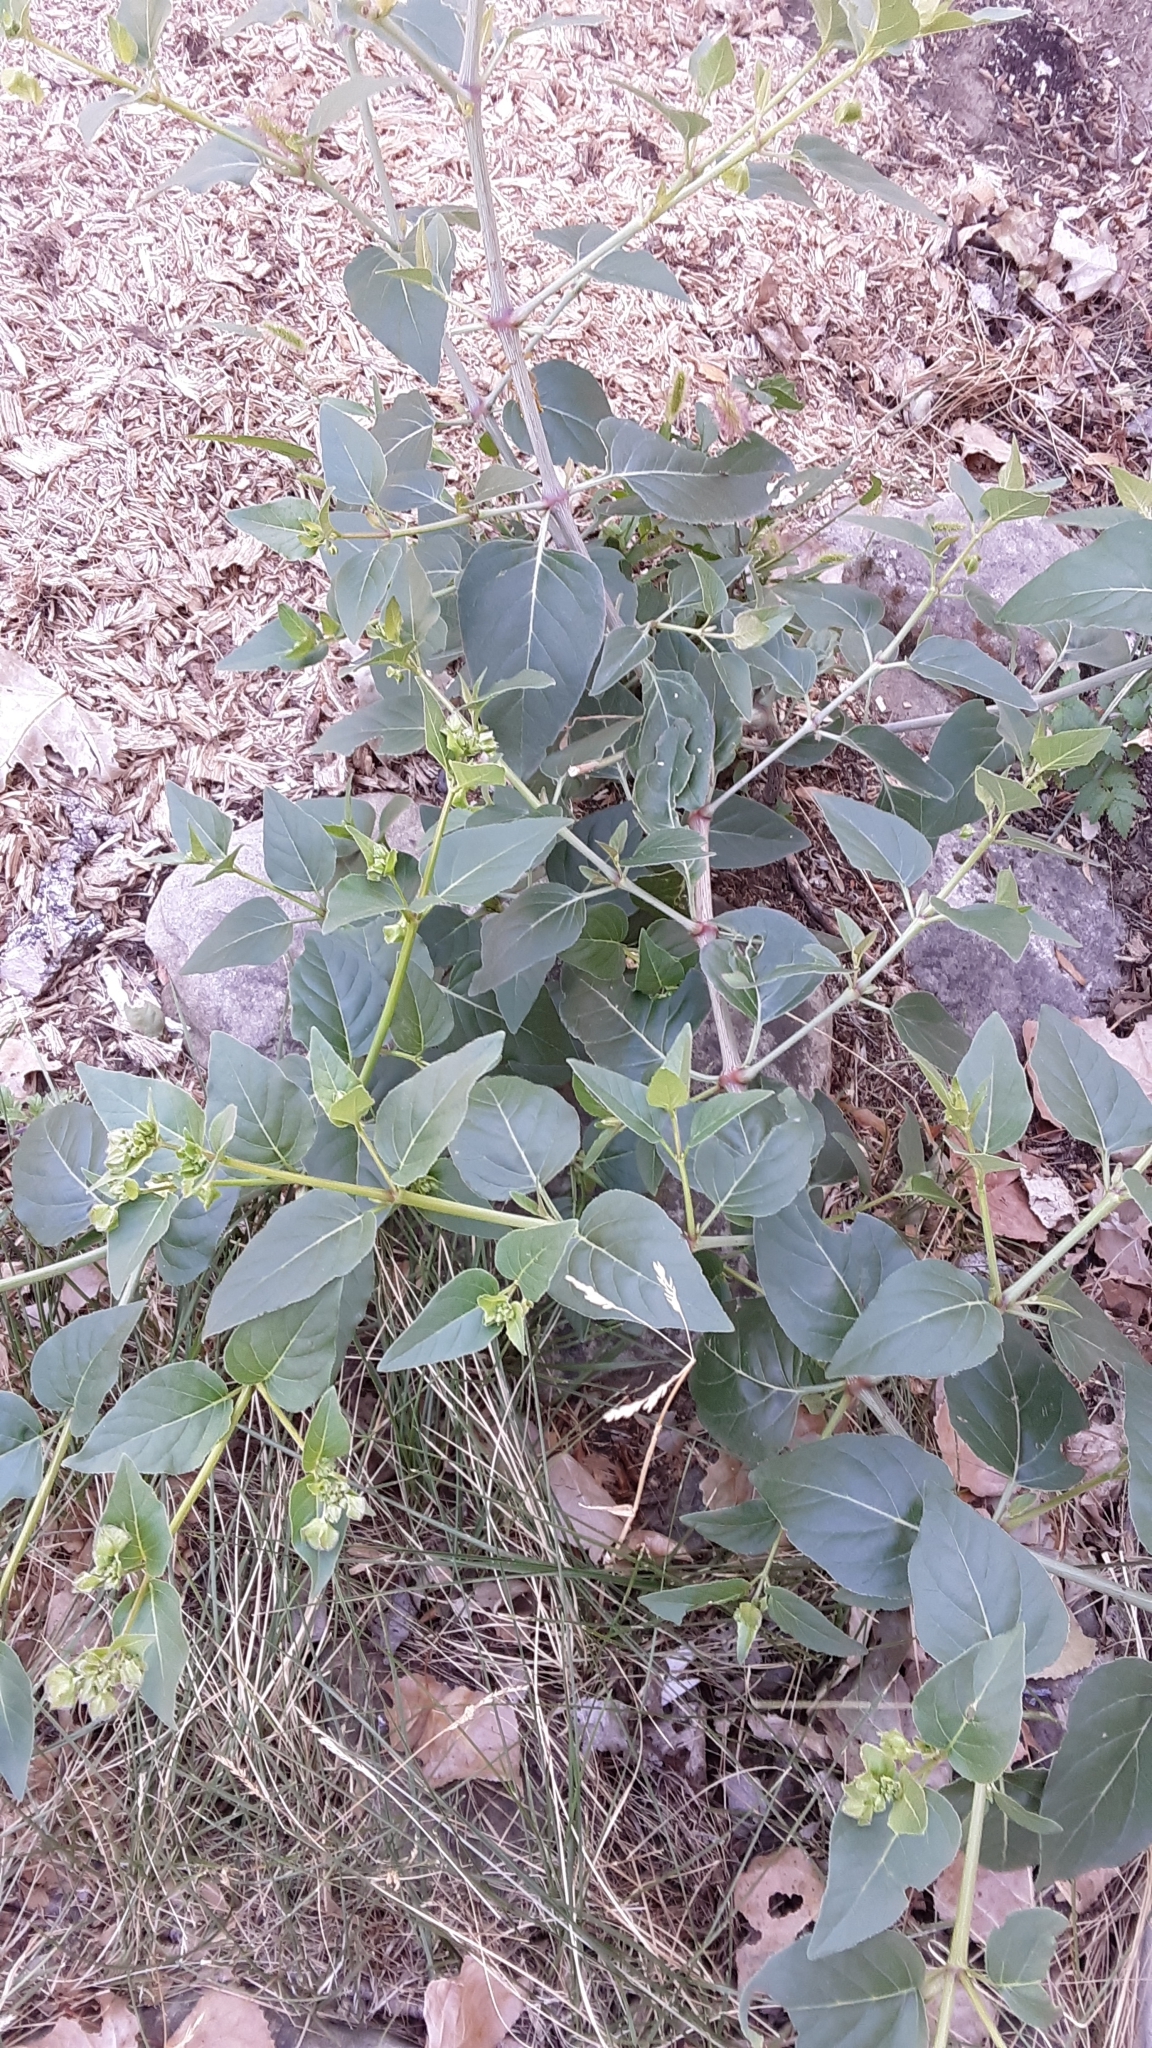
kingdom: Plantae
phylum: Tracheophyta
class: Magnoliopsida
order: Caryophyllales
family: Nyctaginaceae
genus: Mirabilis
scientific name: Mirabilis nyctaginea
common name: Umbrella wort
